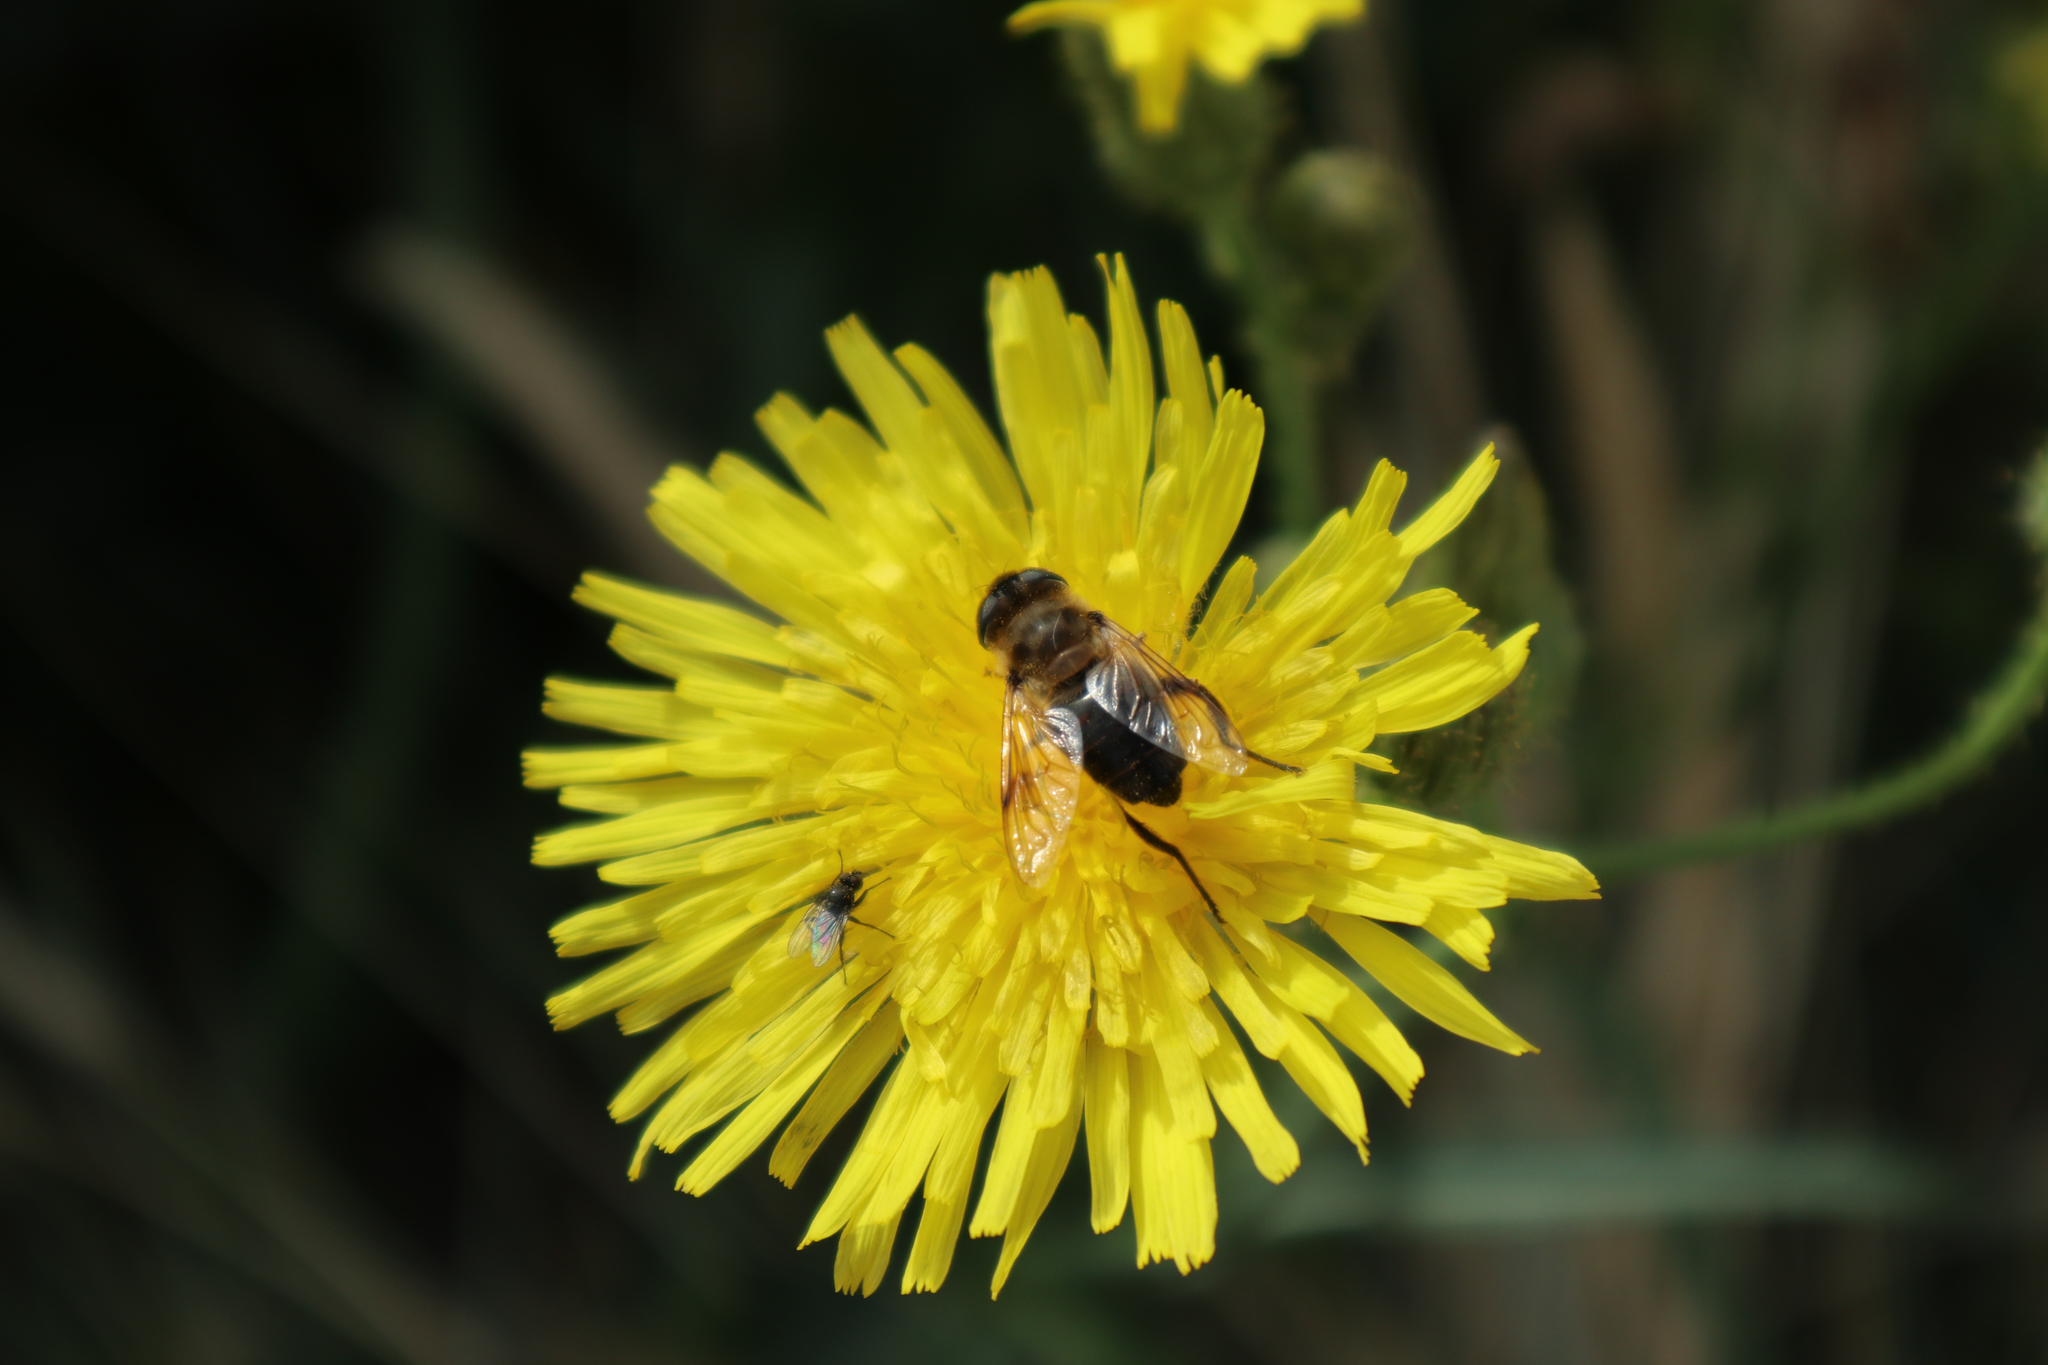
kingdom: Animalia
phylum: Arthropoda
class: Insecta
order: Diptera
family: Syrphidae
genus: Eristalis
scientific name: Eristalis tenax
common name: Drone fly
